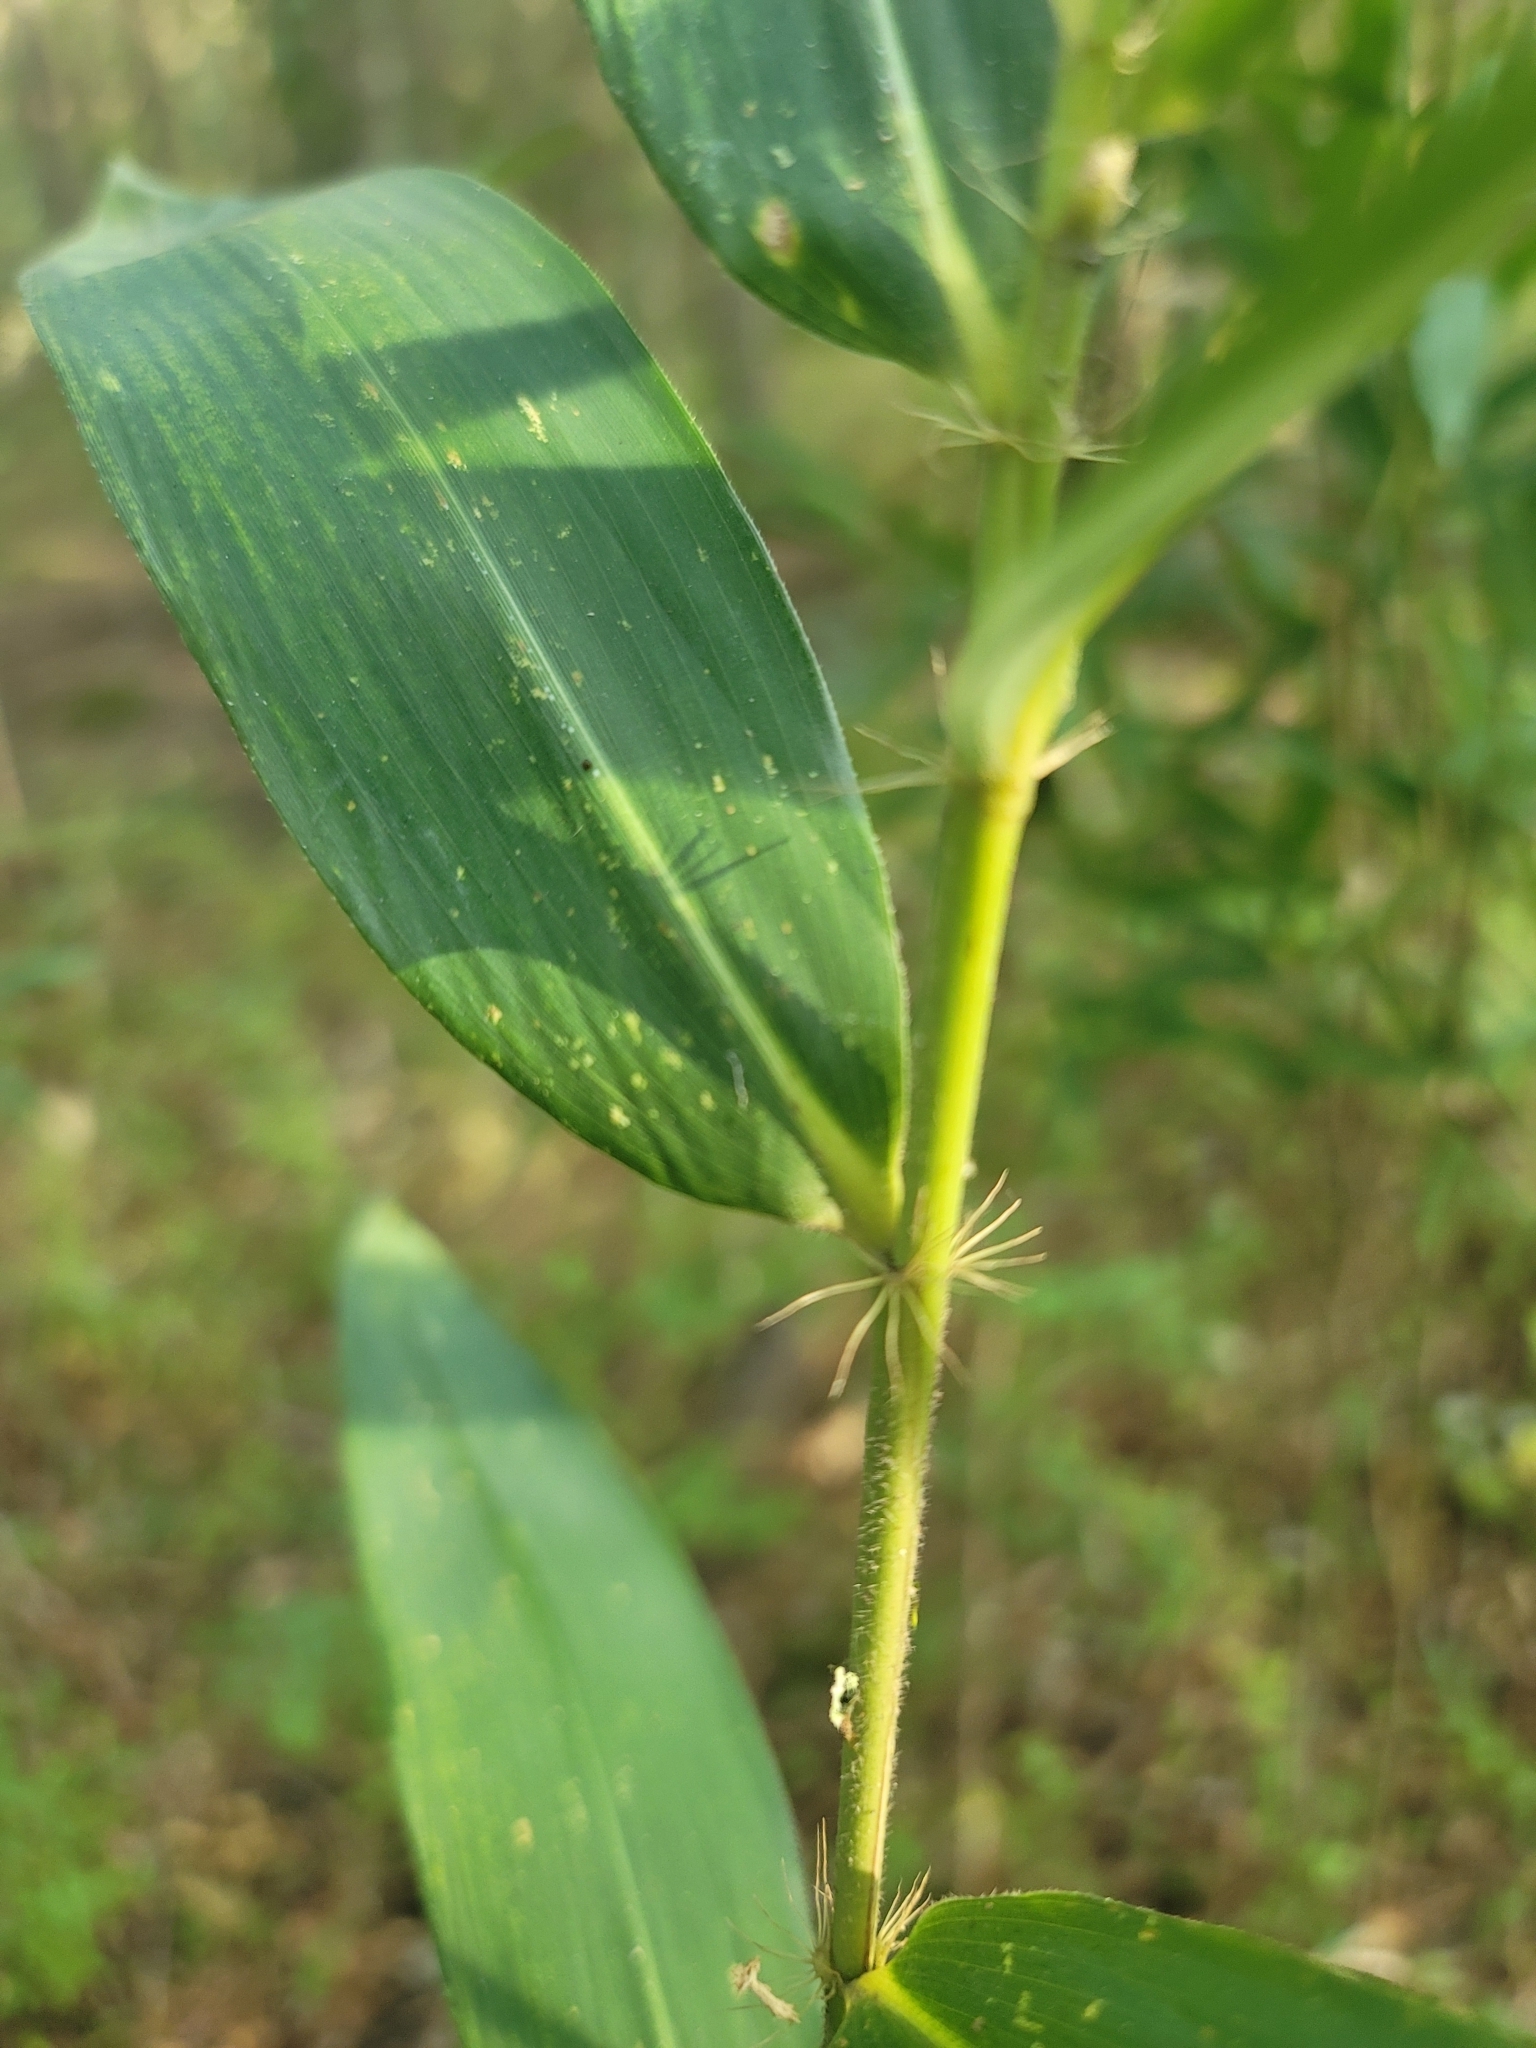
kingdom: Plantae
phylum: Tracheophyta
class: Liliopsida
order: Poales
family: Poaceae
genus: Arundinaria
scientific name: Arundinaria tecta
